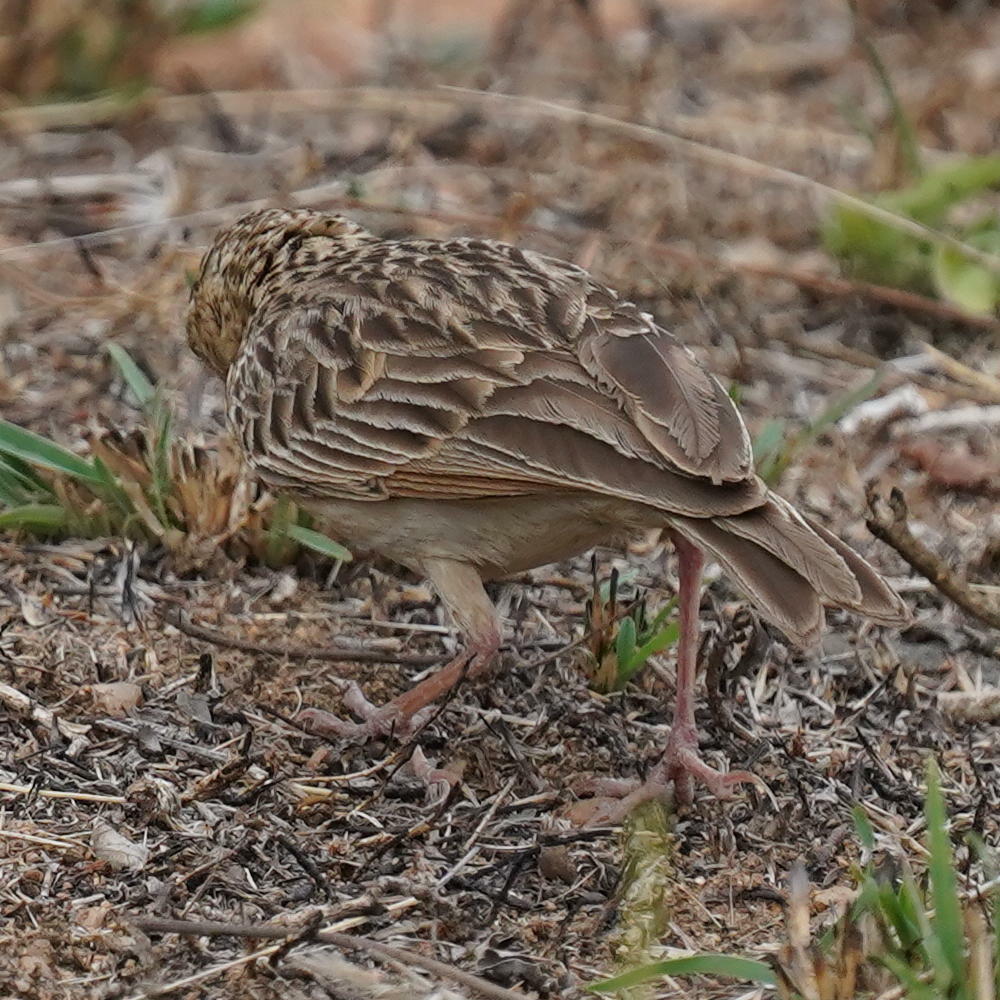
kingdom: Animalia
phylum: Chordata
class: Aves
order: Passeriformes
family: Alaudidae
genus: Mirafra
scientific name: Mirafra affinis
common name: Jerdon's bushlark
